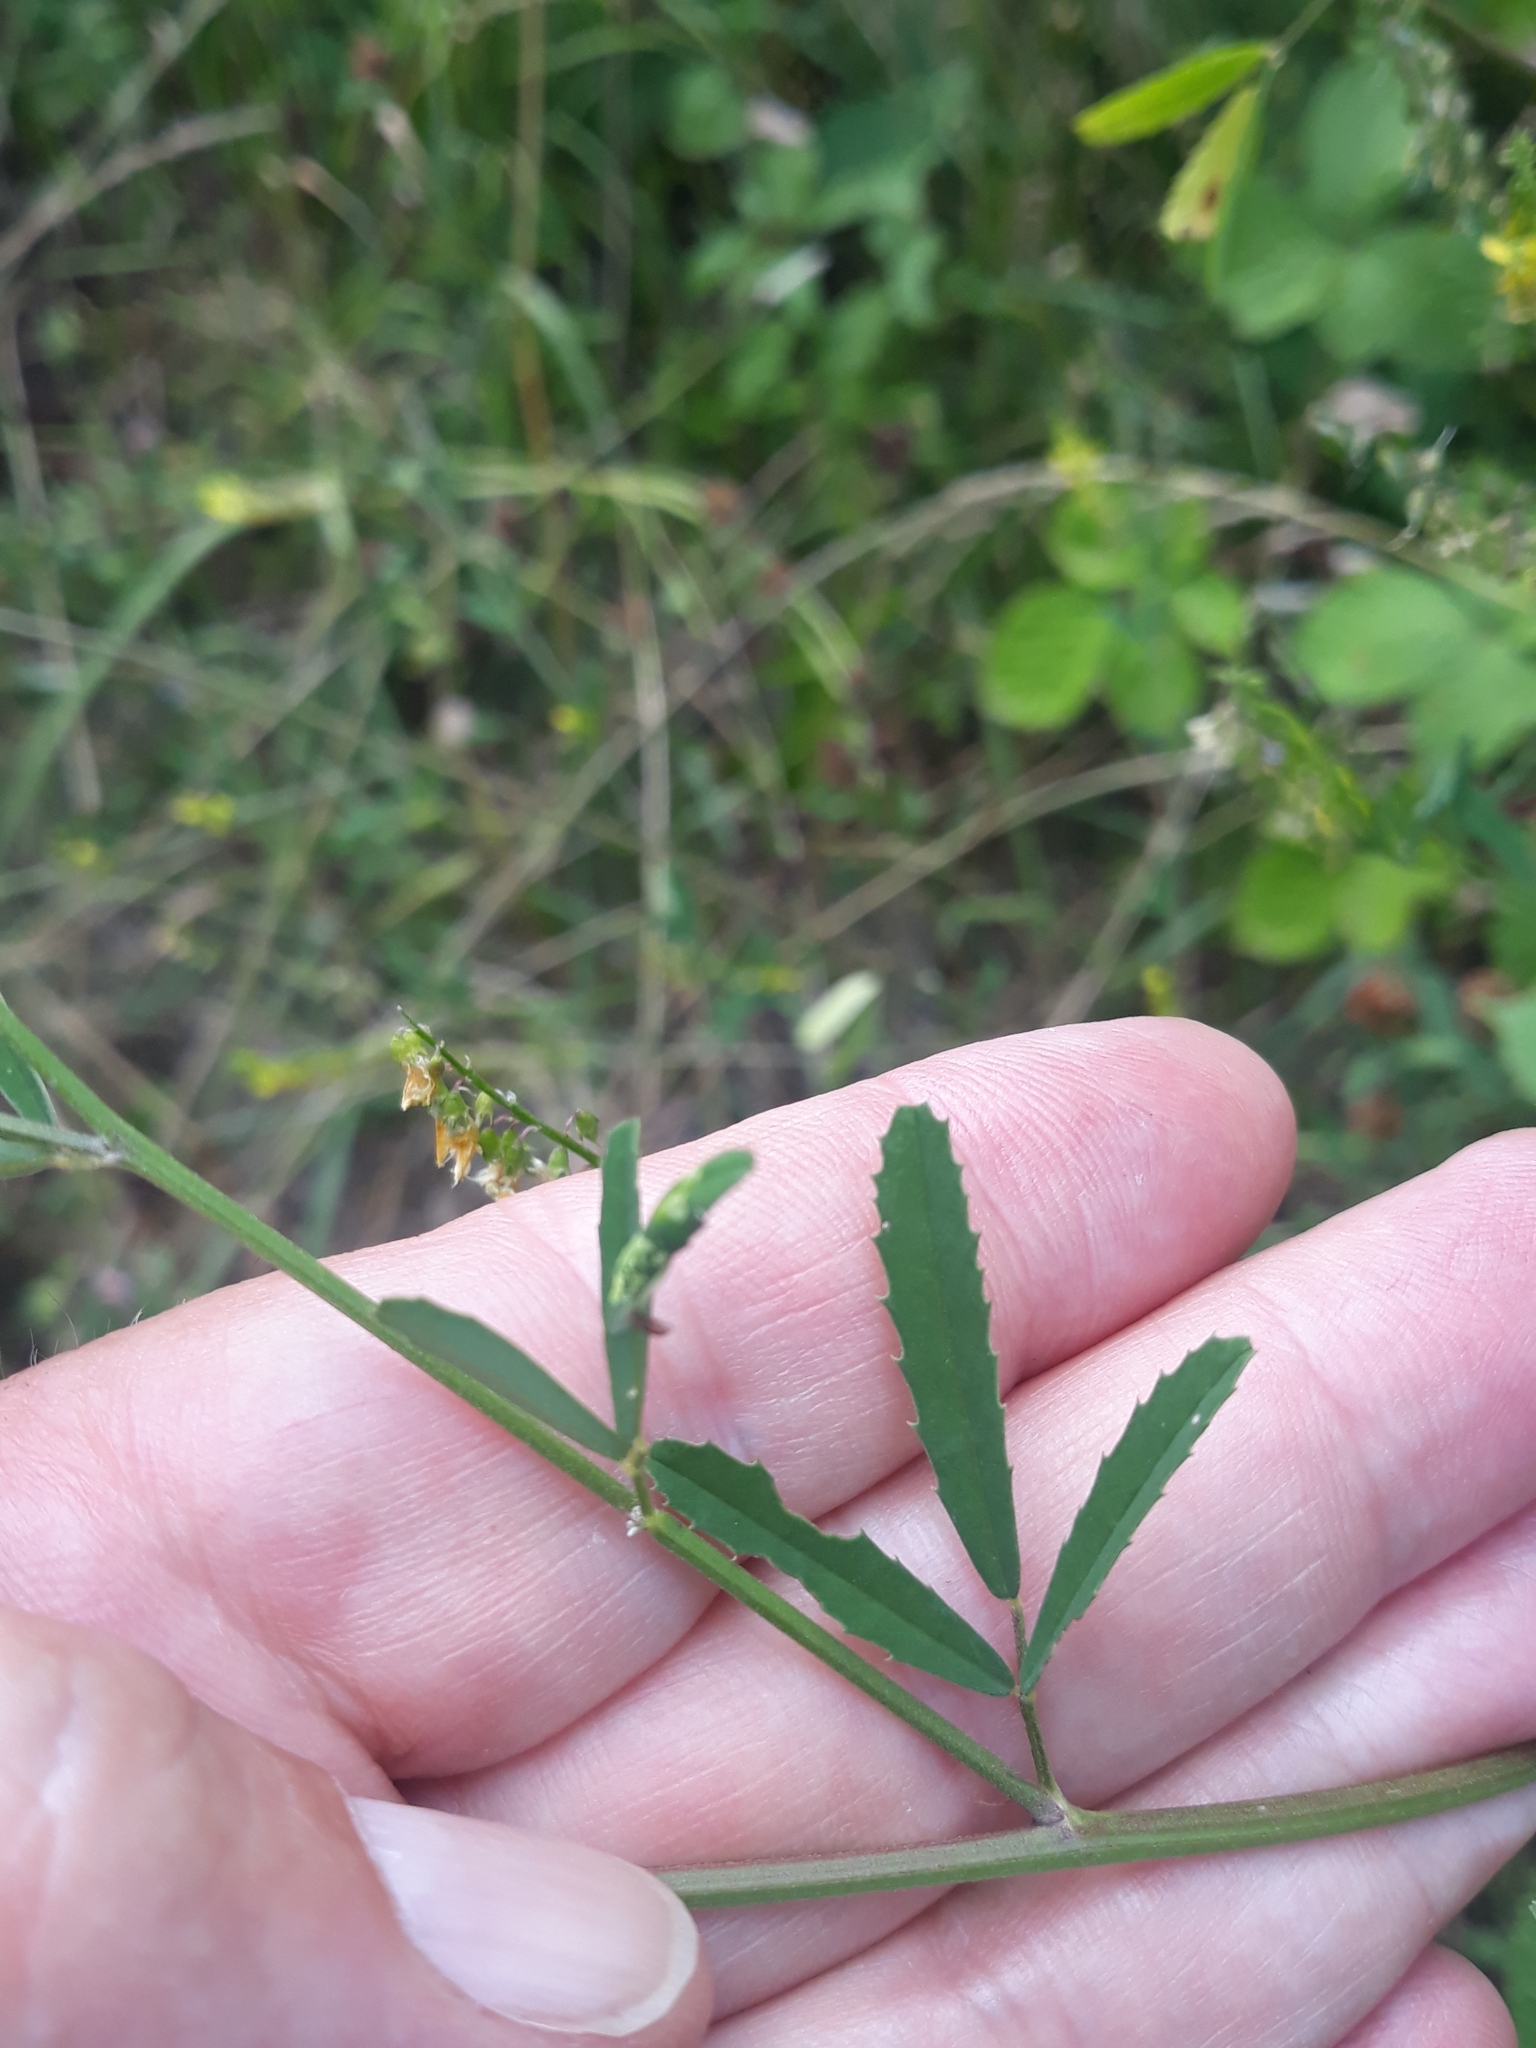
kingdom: Plantae
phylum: Tracheophyta
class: Magnoliopsida
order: Fabales
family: Fabaceae
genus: Melilotus
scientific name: Melilotus officinalis
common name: Sweetclover
